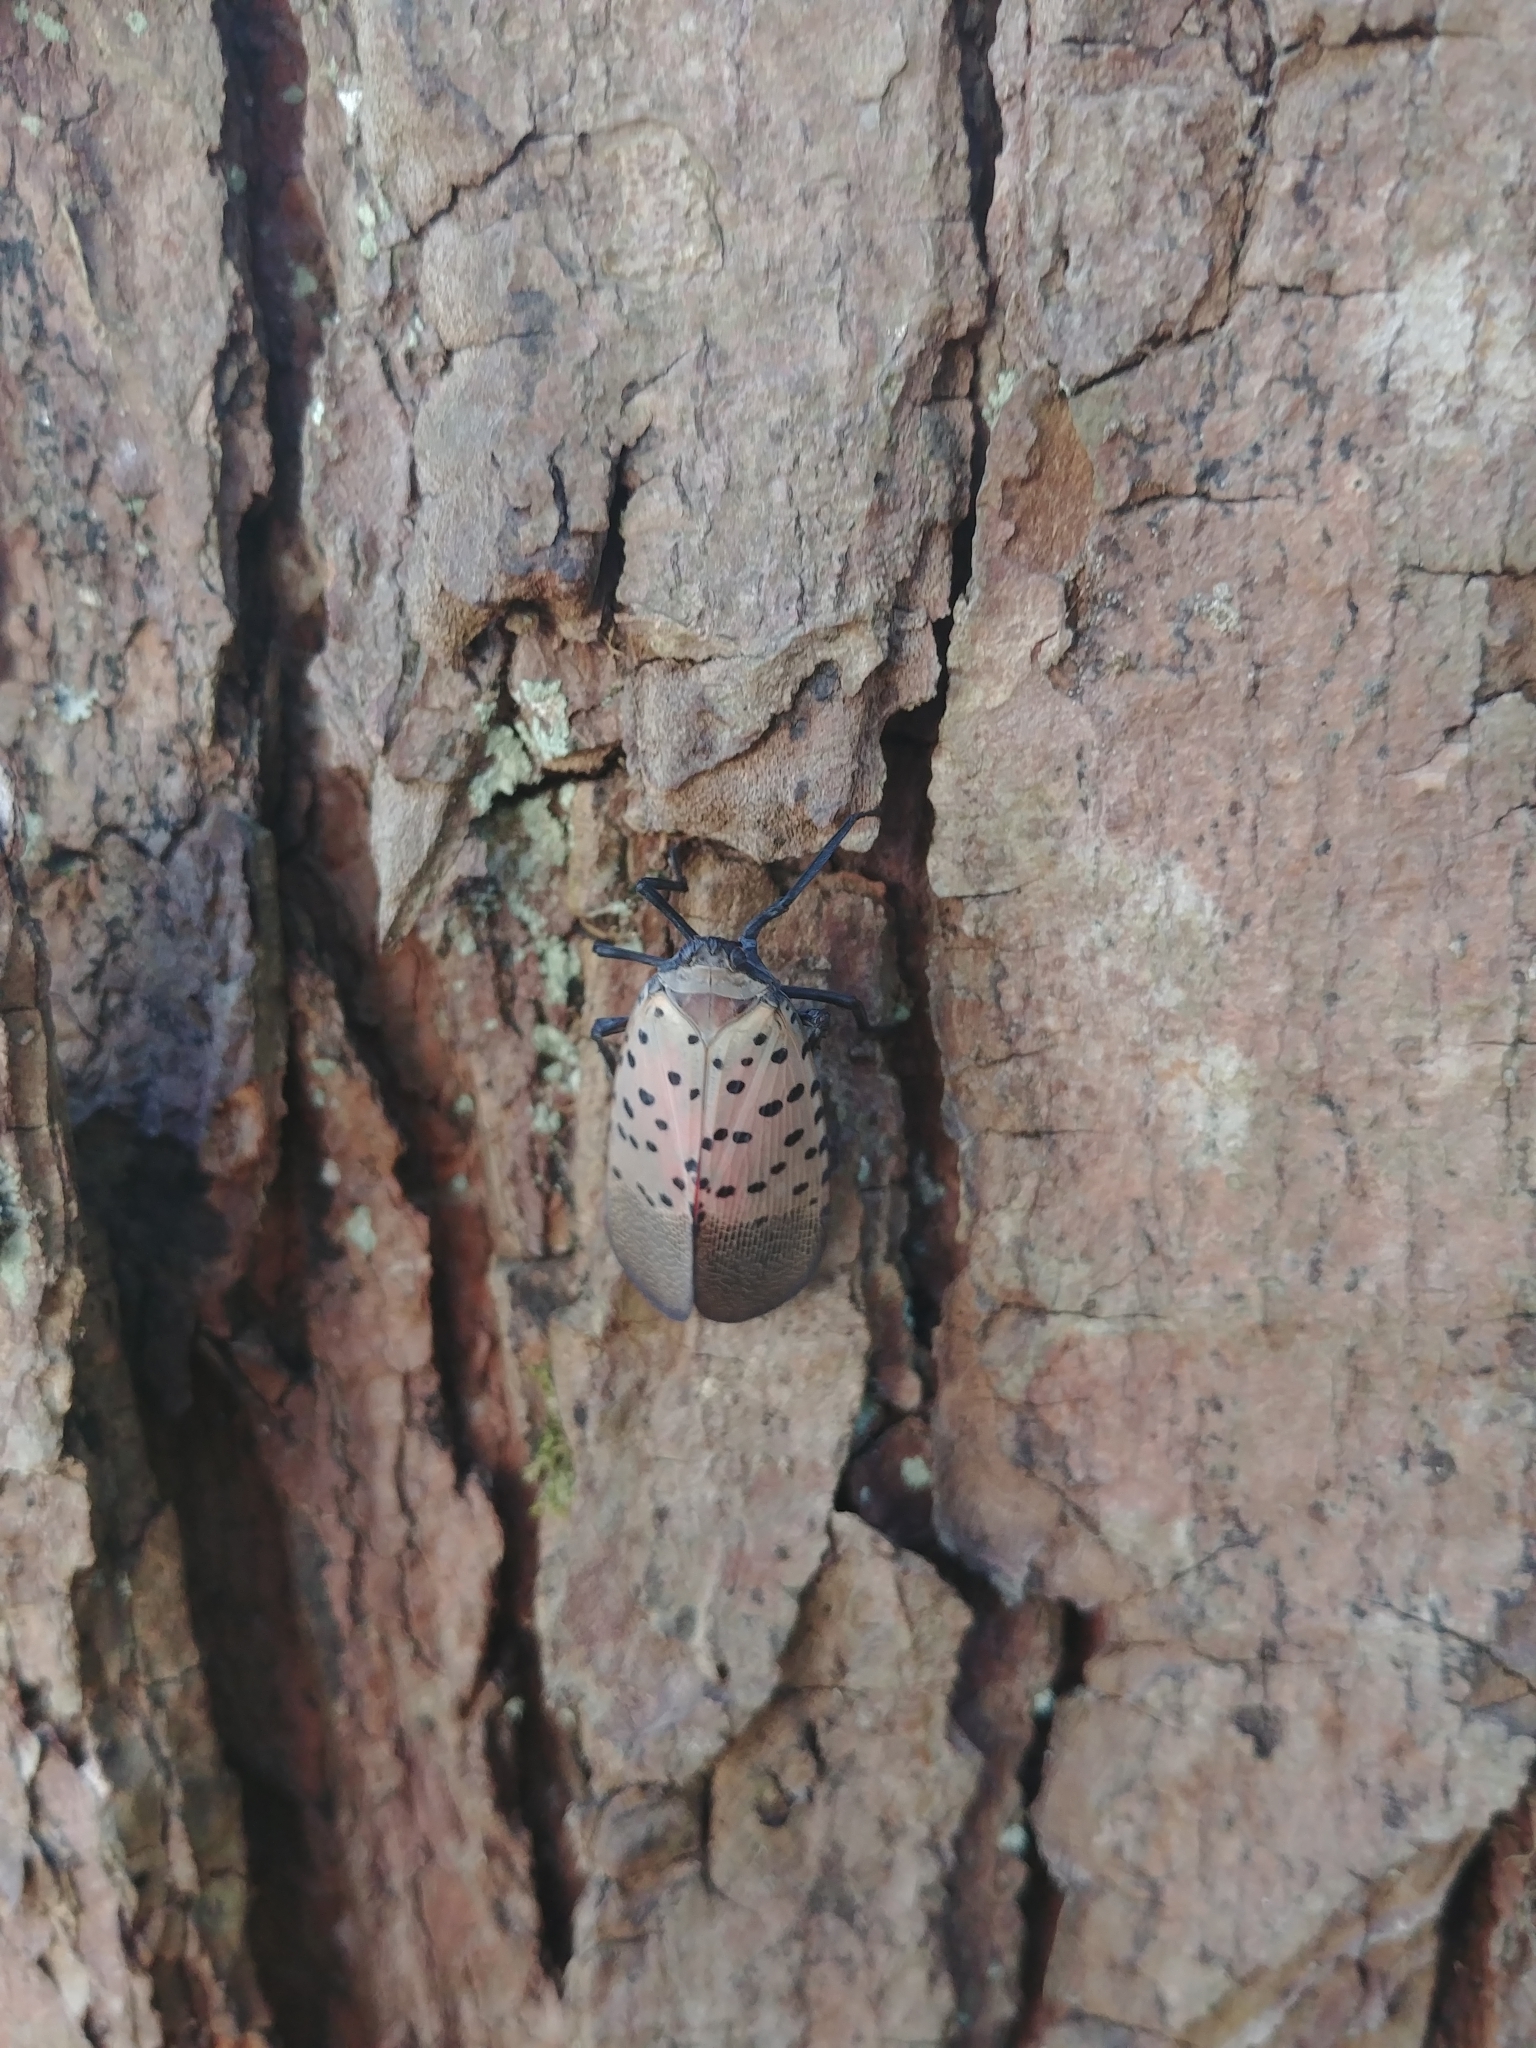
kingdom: Animalia
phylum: Arthropoda
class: Insecta
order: Hemiptera
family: Fulgoridae
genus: Lycorma
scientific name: Lycorma delicatula
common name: Spotted lanternfly
